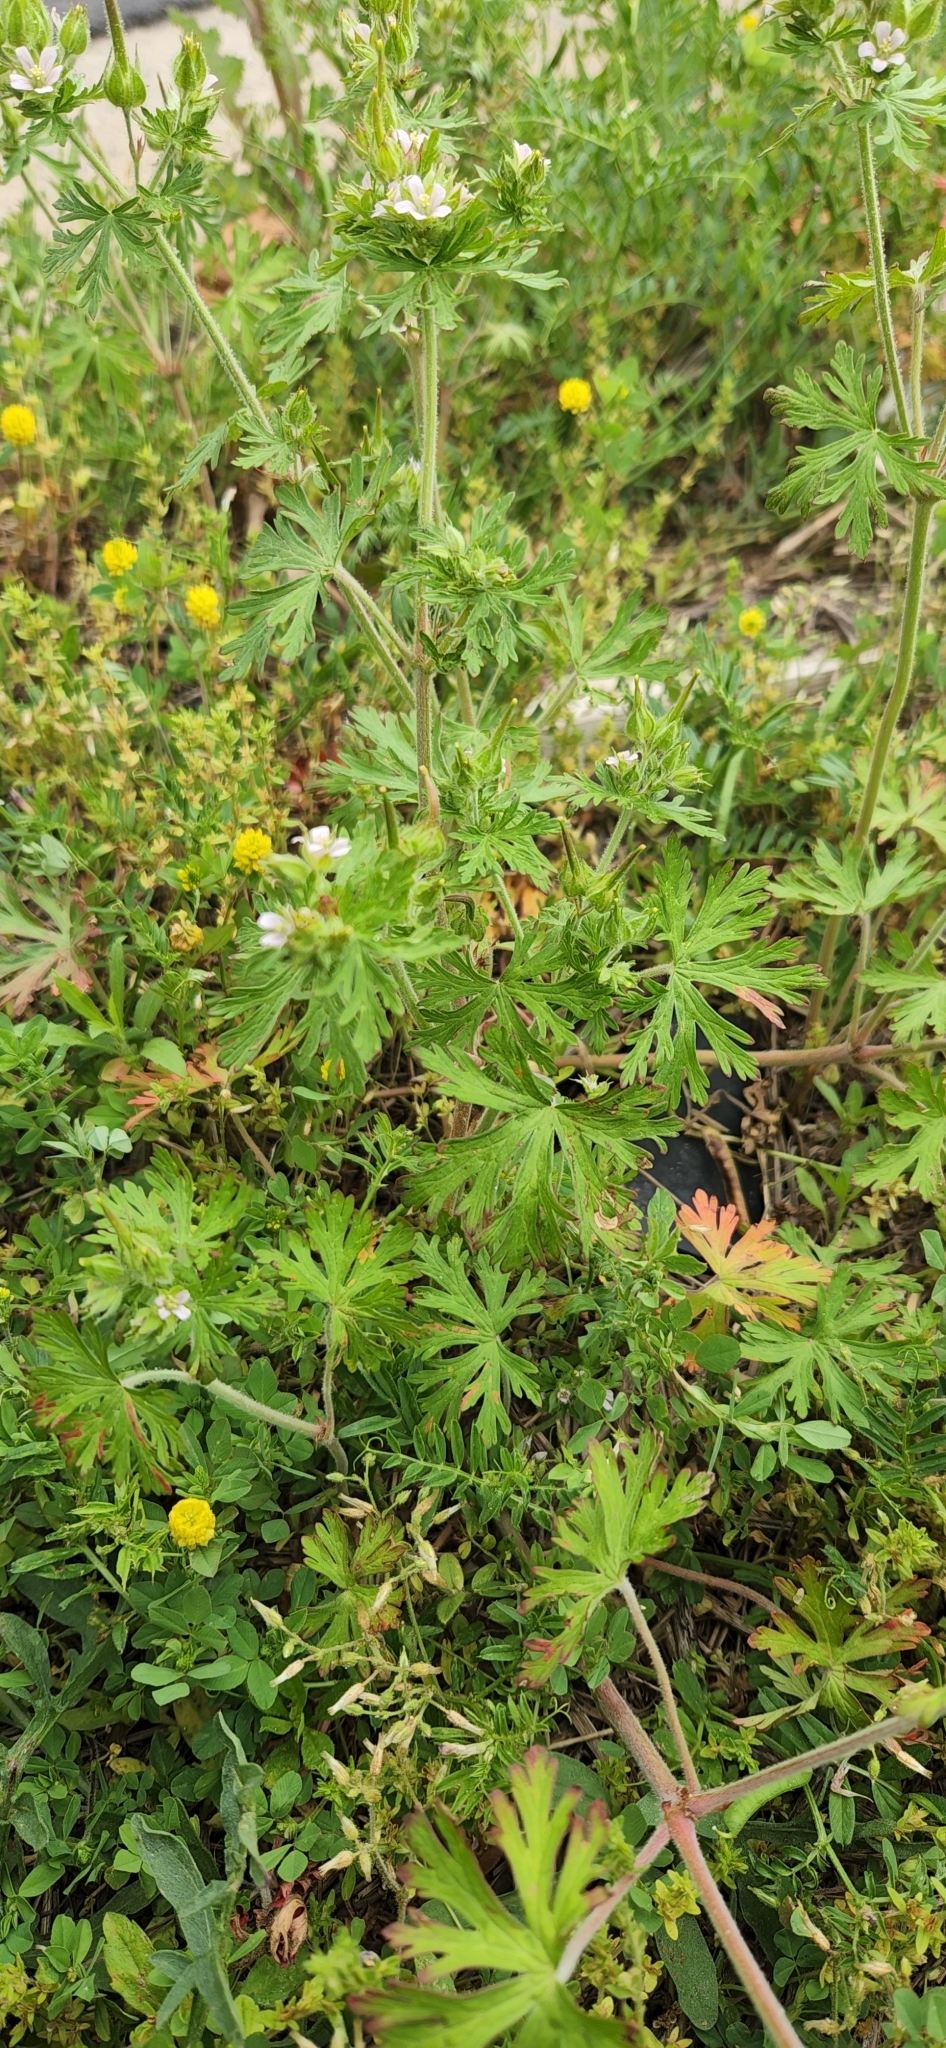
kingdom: Plantae
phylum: Tracheophyta
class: Magnoliopsida
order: Geraniales
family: Geraniaceae
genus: Geranium
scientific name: Geranium carolinianum
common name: Carolina crane's-bill
